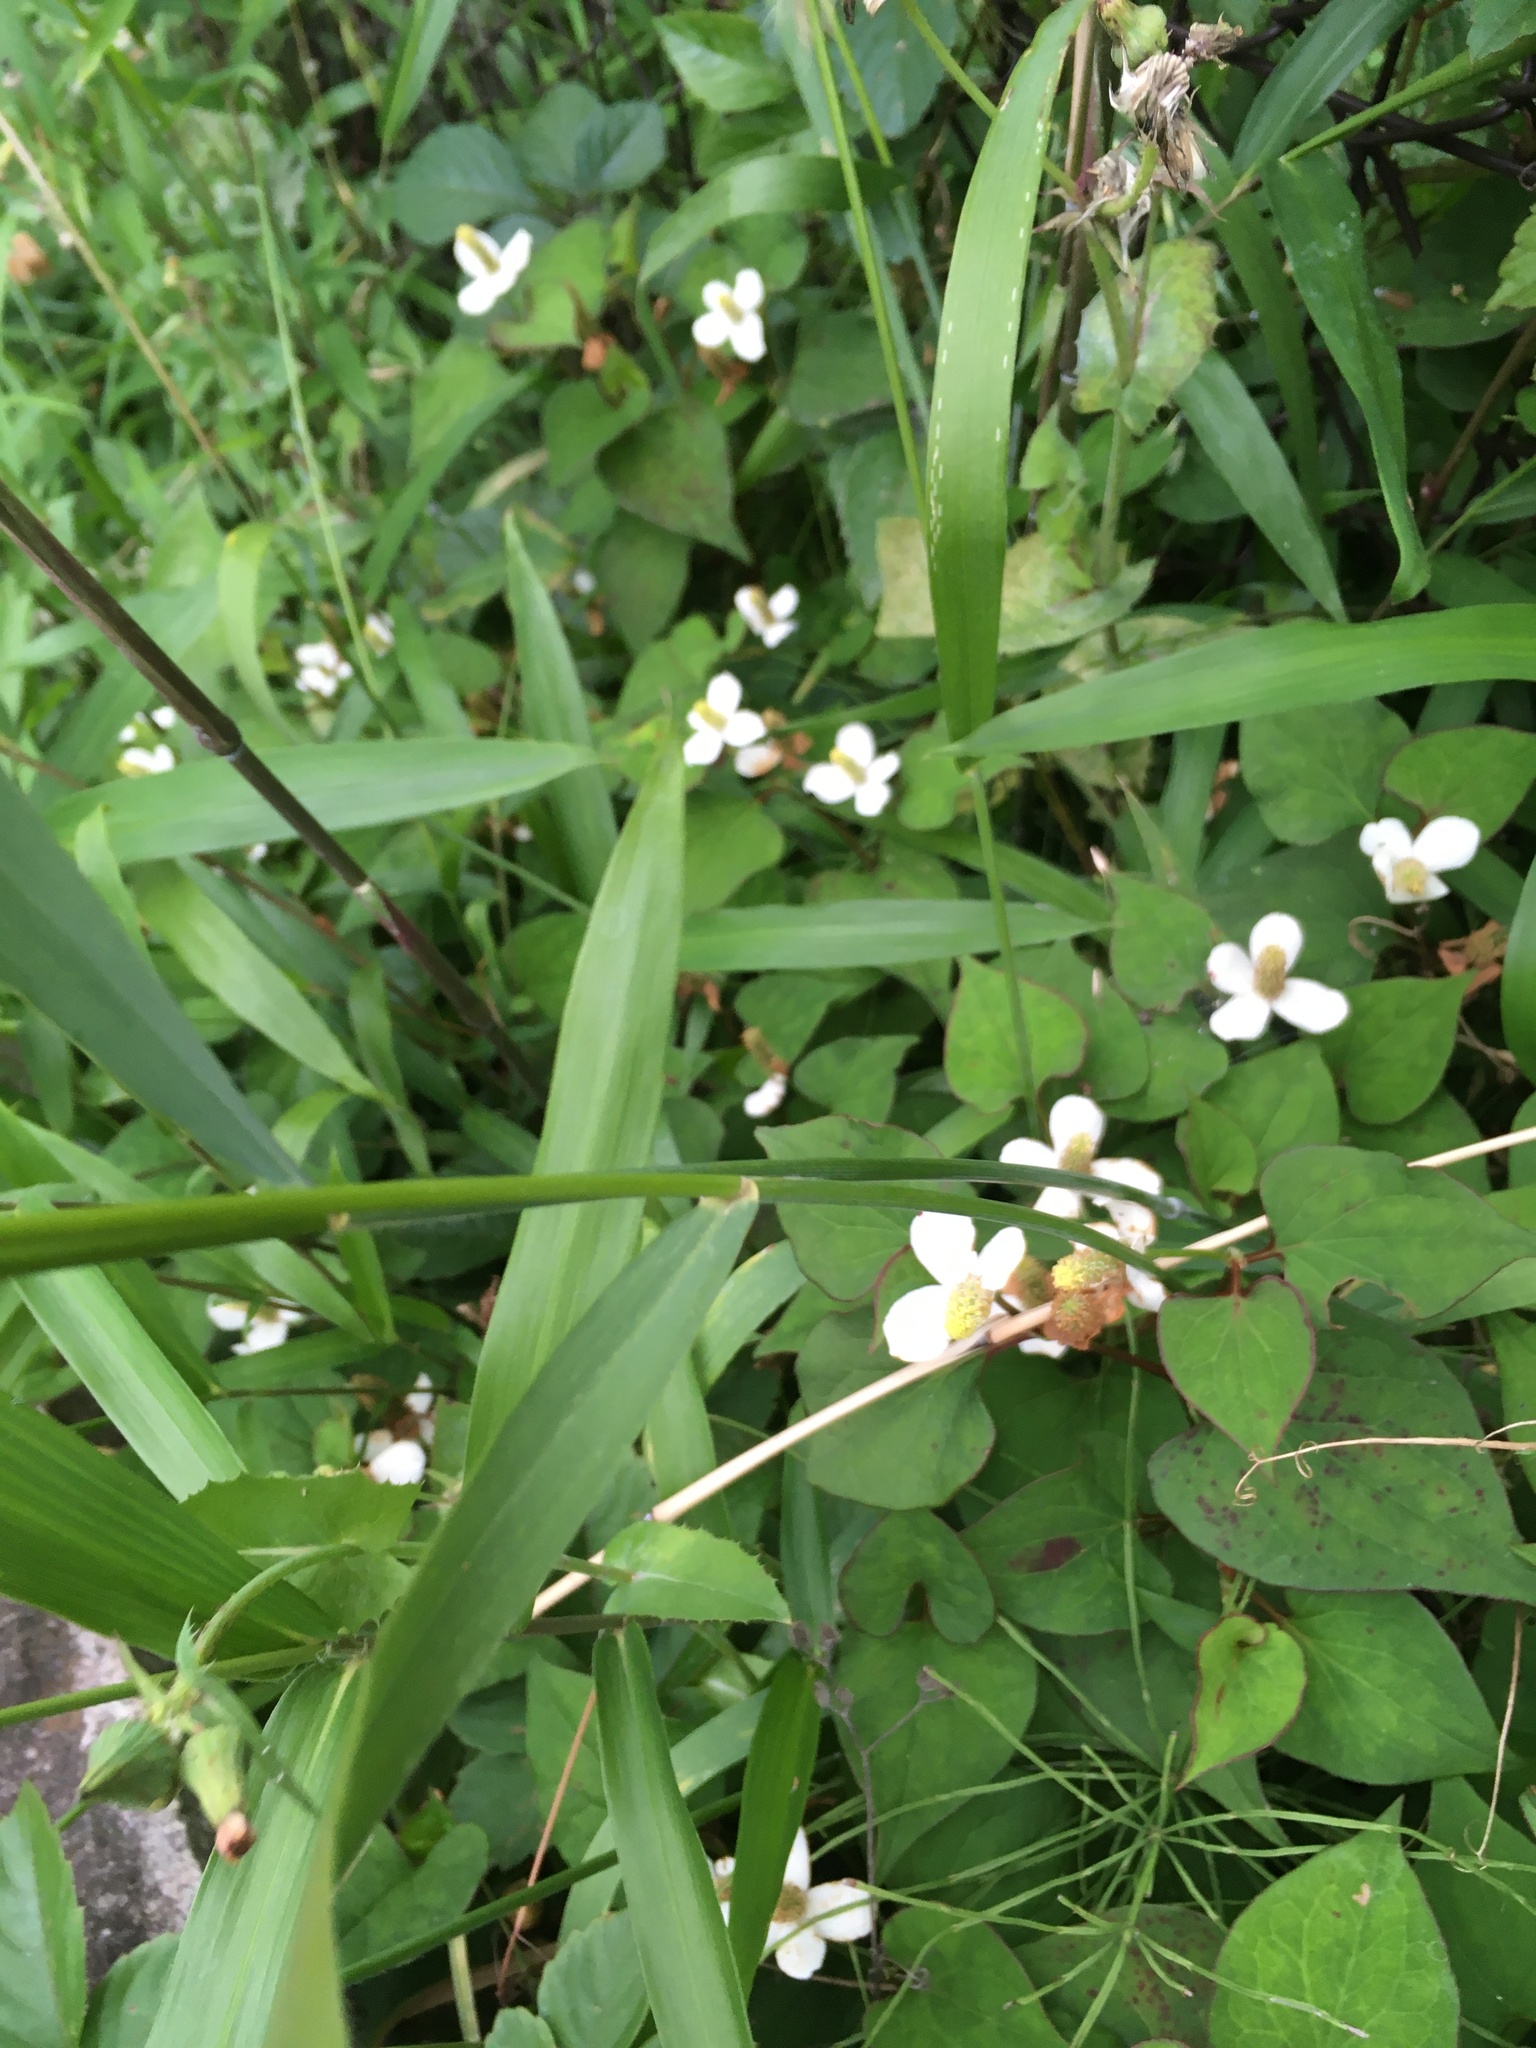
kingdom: Plantae
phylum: Tracheophyta
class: Liliopsida
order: Poales
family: Poaceae
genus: Elymus
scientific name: Elymus tsukushiensis
